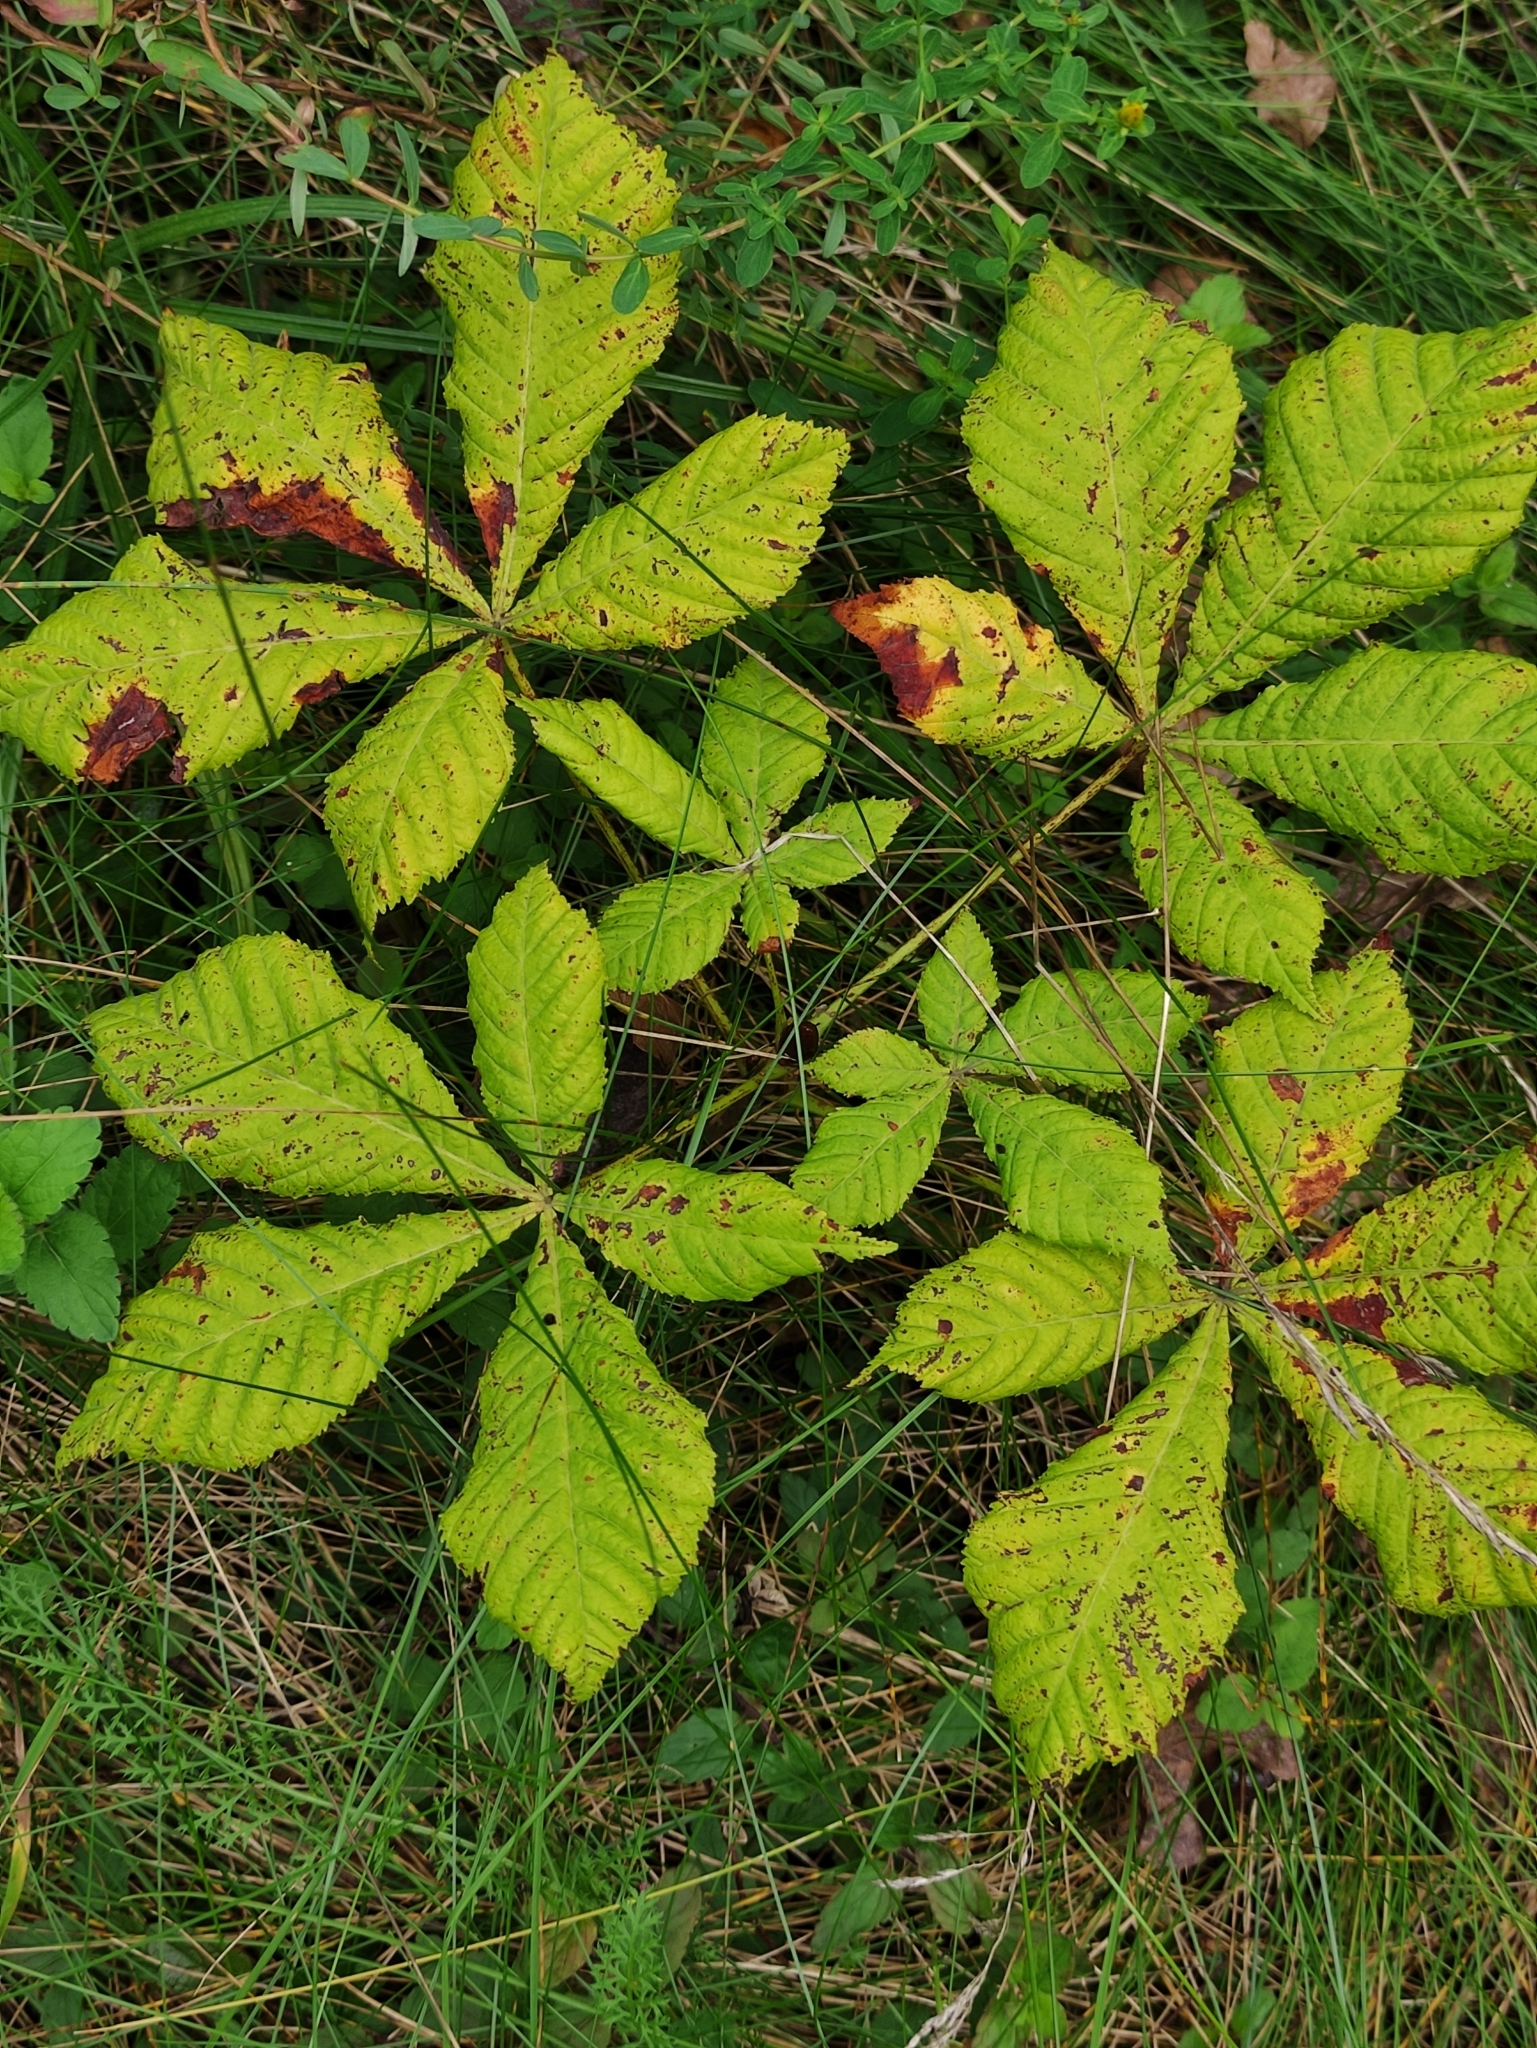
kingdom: Plantae
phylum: Tracheophyta
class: Magnoliopsida
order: Sapindales
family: Sapindaceae
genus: Aesculus
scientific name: Aesculus hippocastanum
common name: Horse-chestnut
